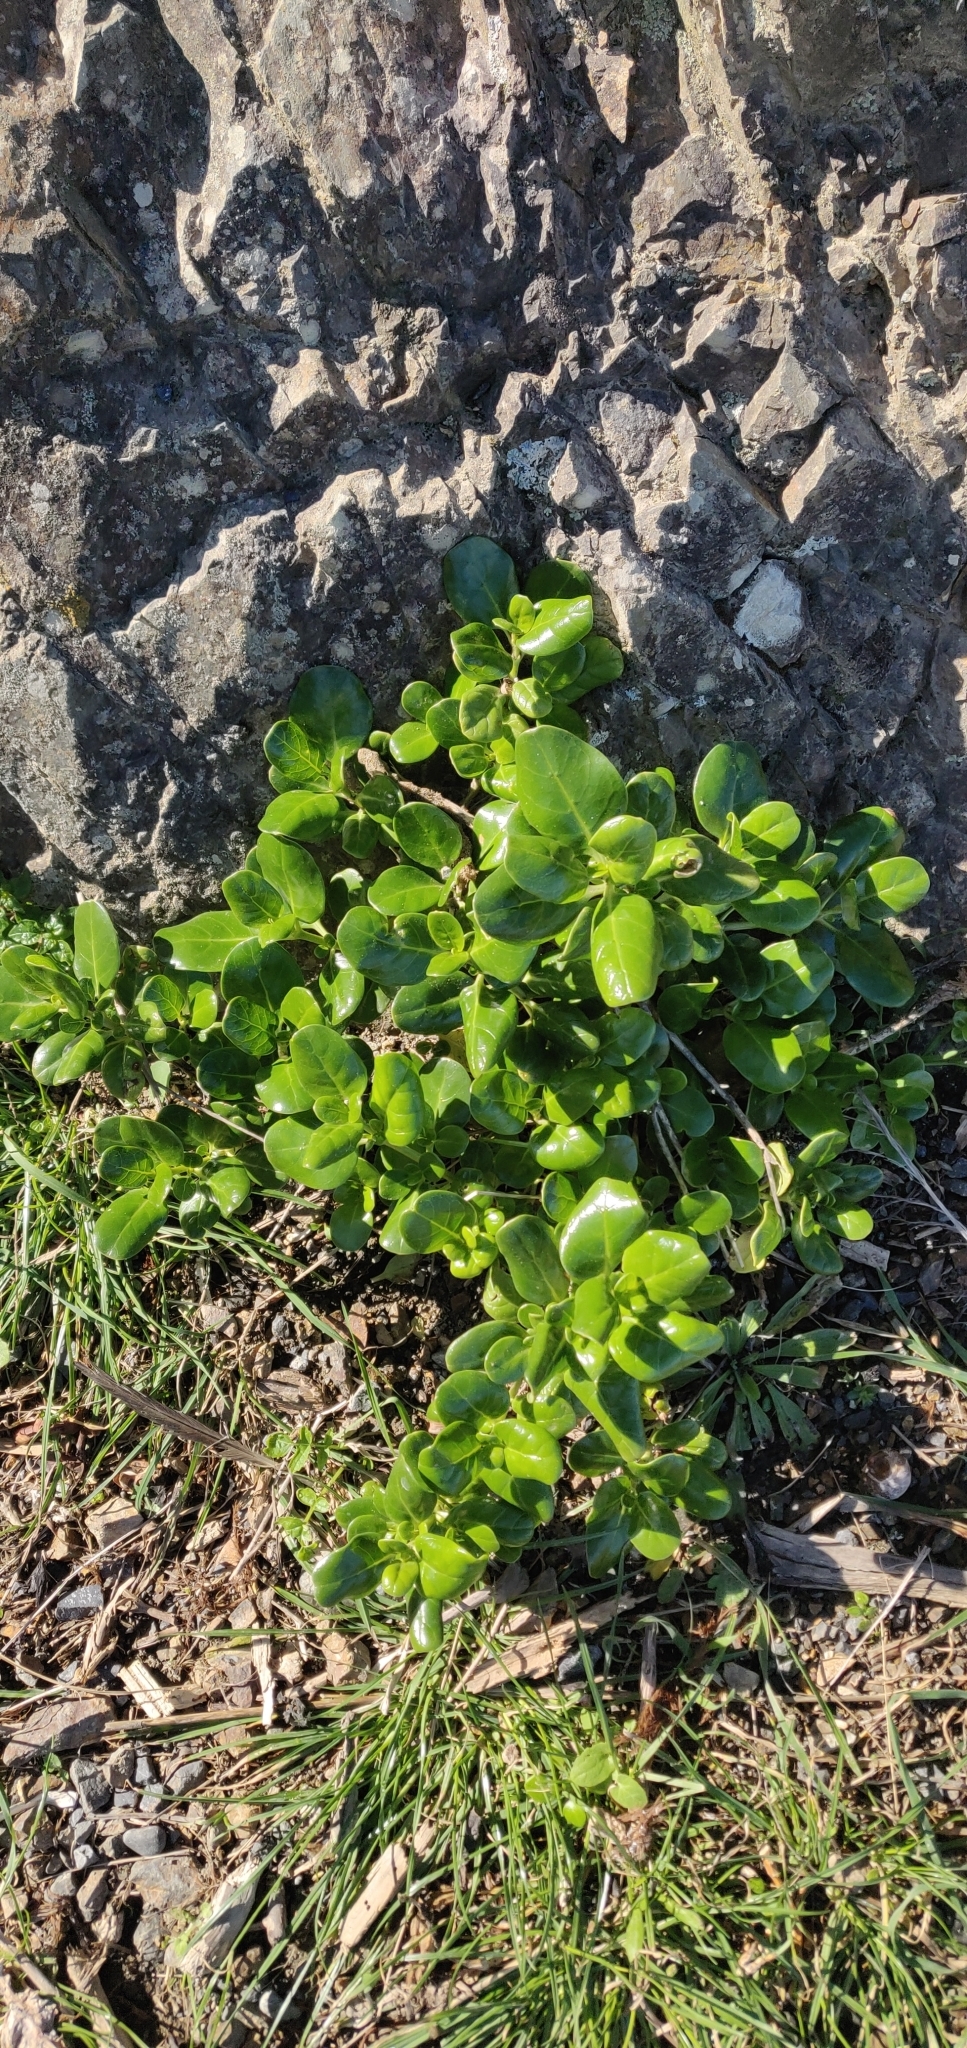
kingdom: Plantae
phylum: Tracheophyta
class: Magnoliopsida
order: Gentianales
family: Rubiaceae
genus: Coprosma
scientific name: Coprosma repens
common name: Tree bedstraw
